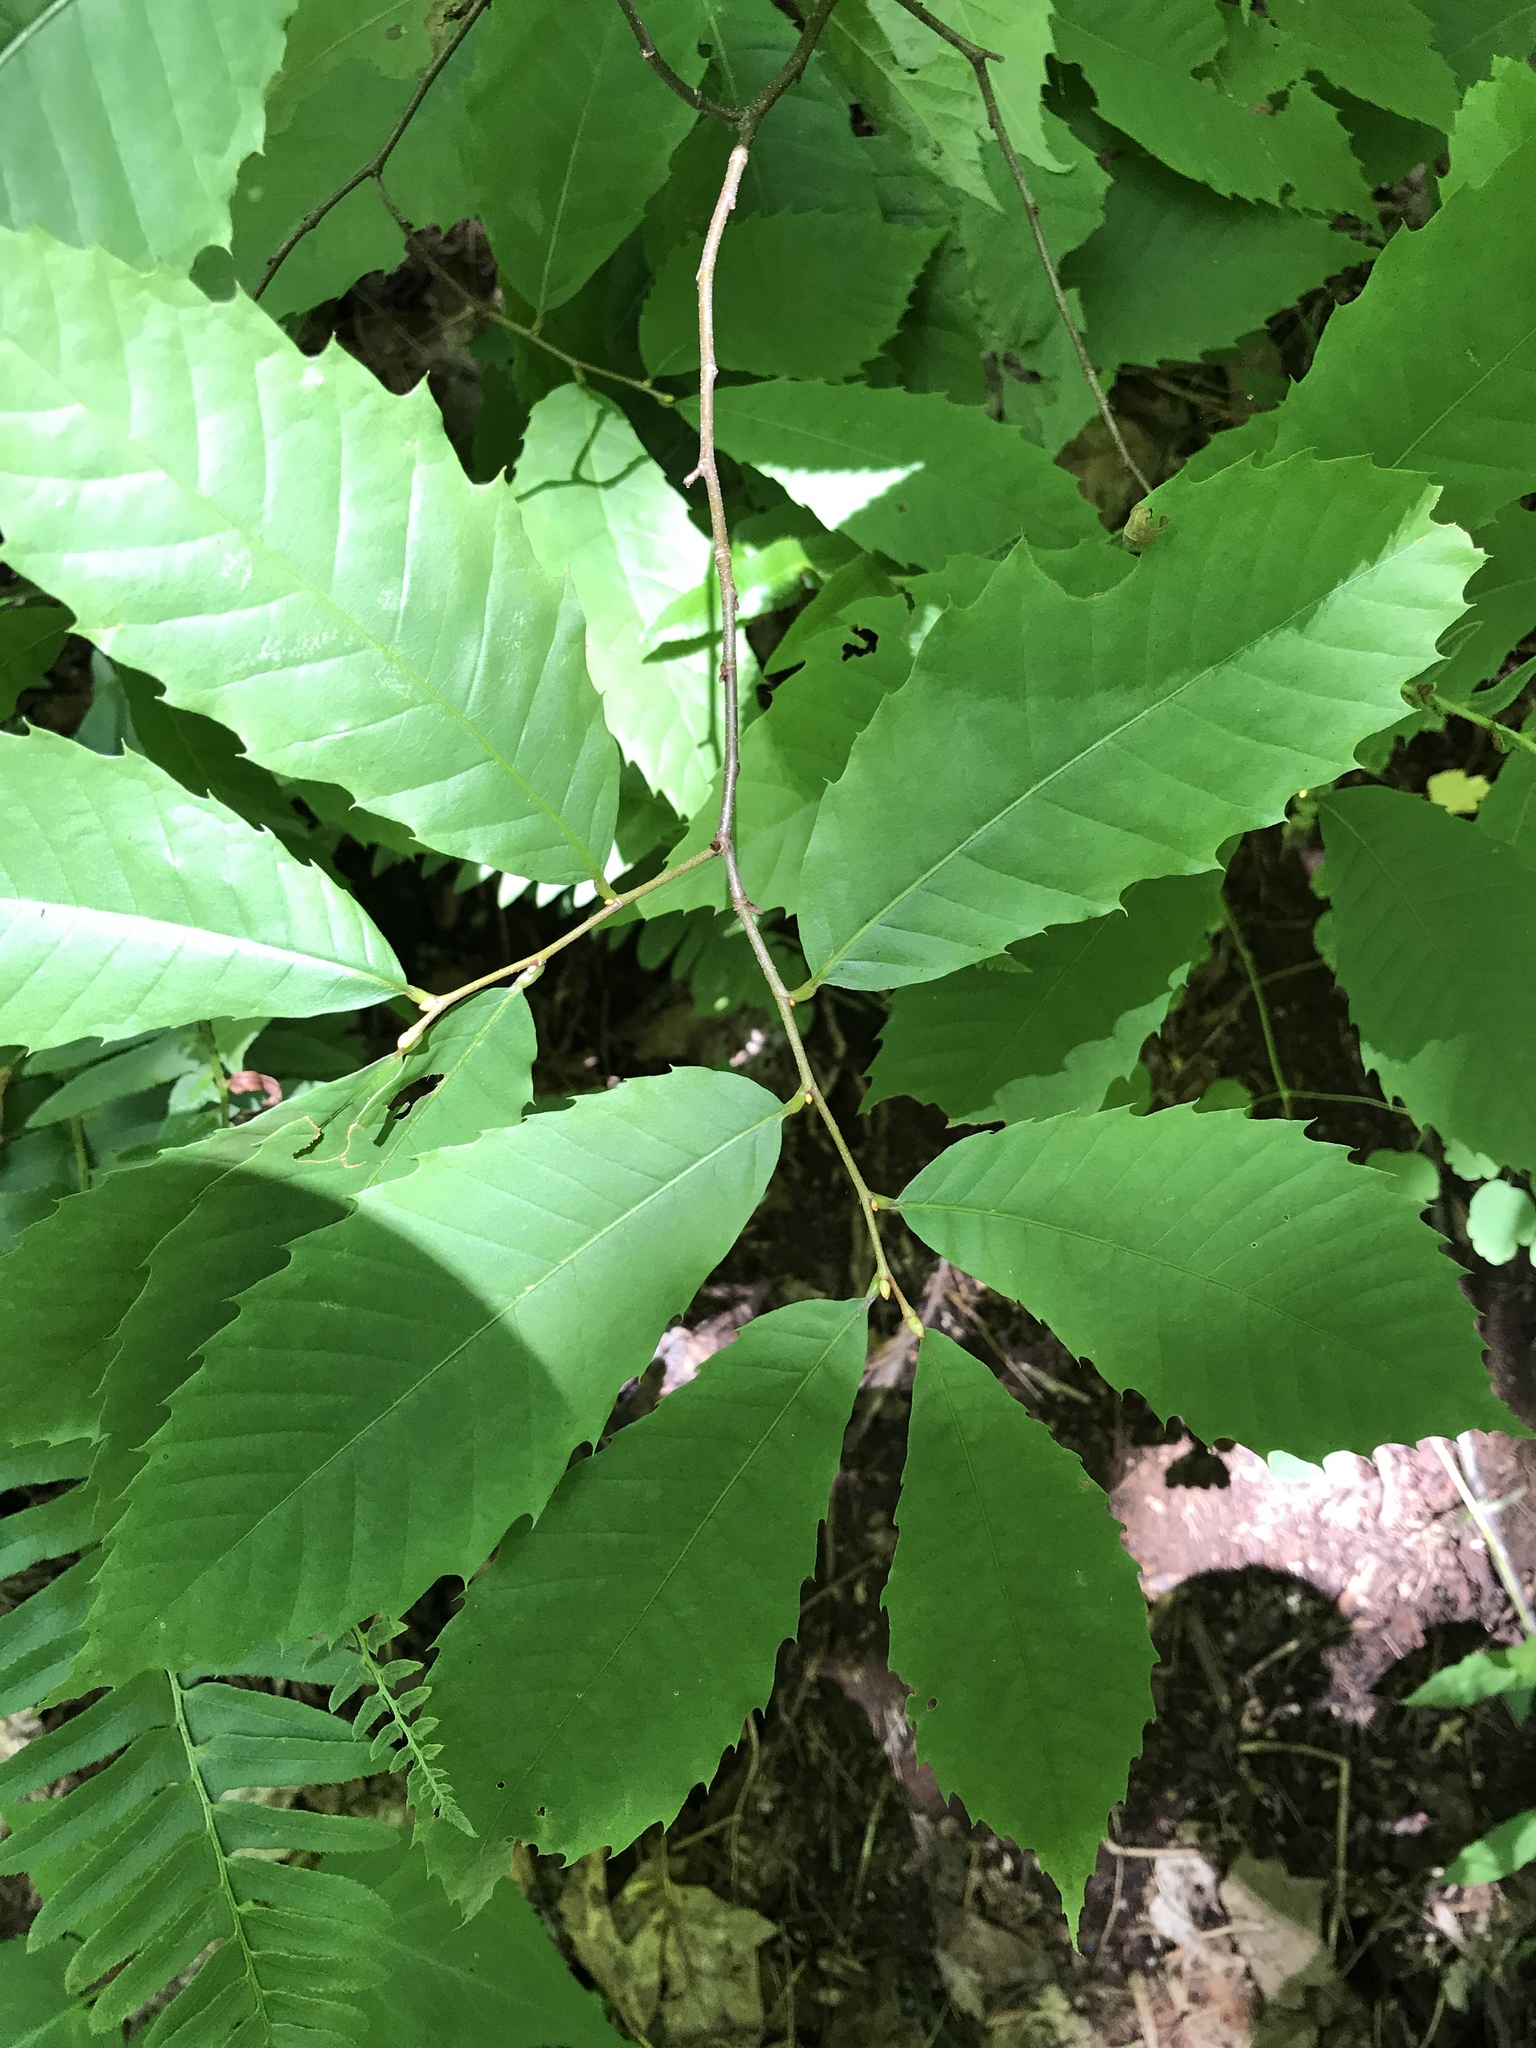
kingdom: Plantae
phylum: Tracheophyta
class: Magnoliopsida
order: Fagales
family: Fagaceae
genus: Castanea
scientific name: Castanea dentata
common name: American chestnut
